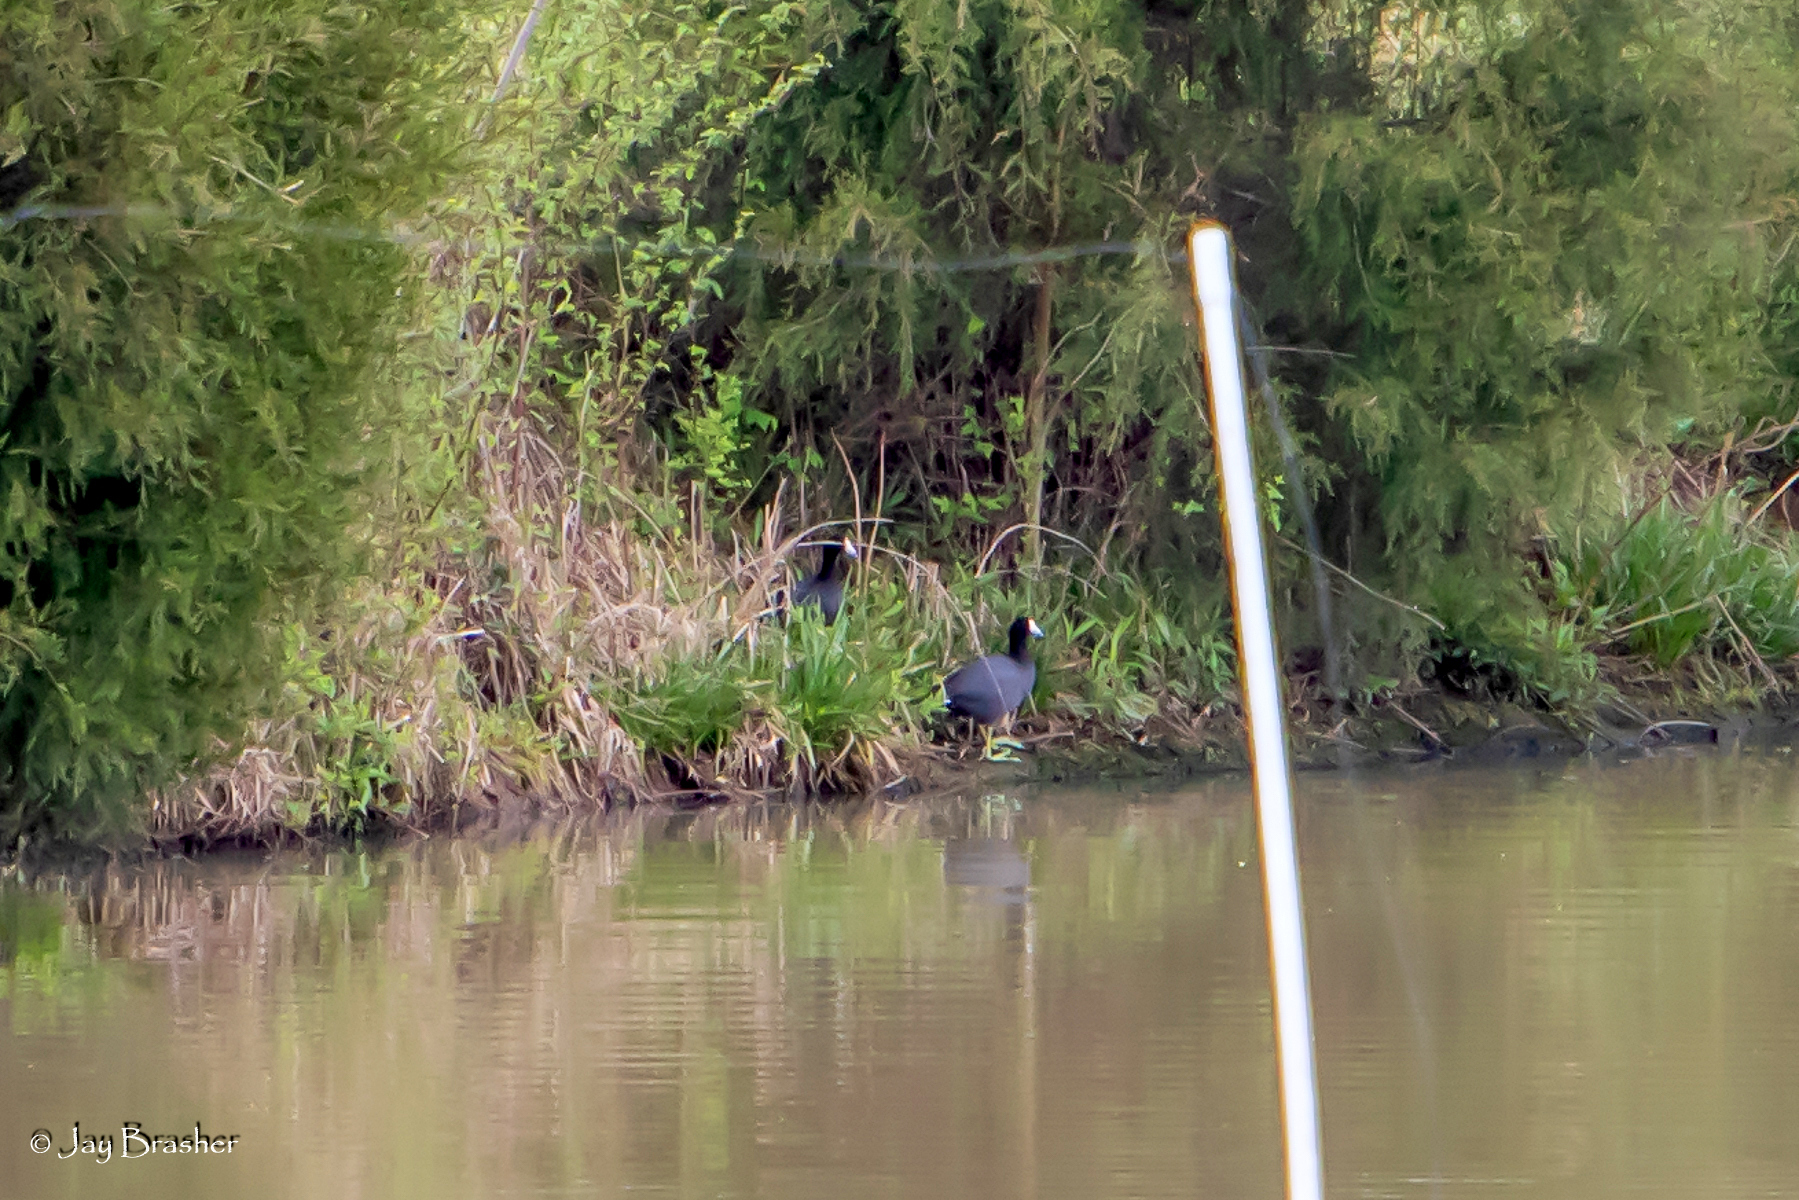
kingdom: Animalia
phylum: Chordata
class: Aves
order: Gruiformes
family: Rallidae
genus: Fulica
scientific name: Fulica americana
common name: American coot
